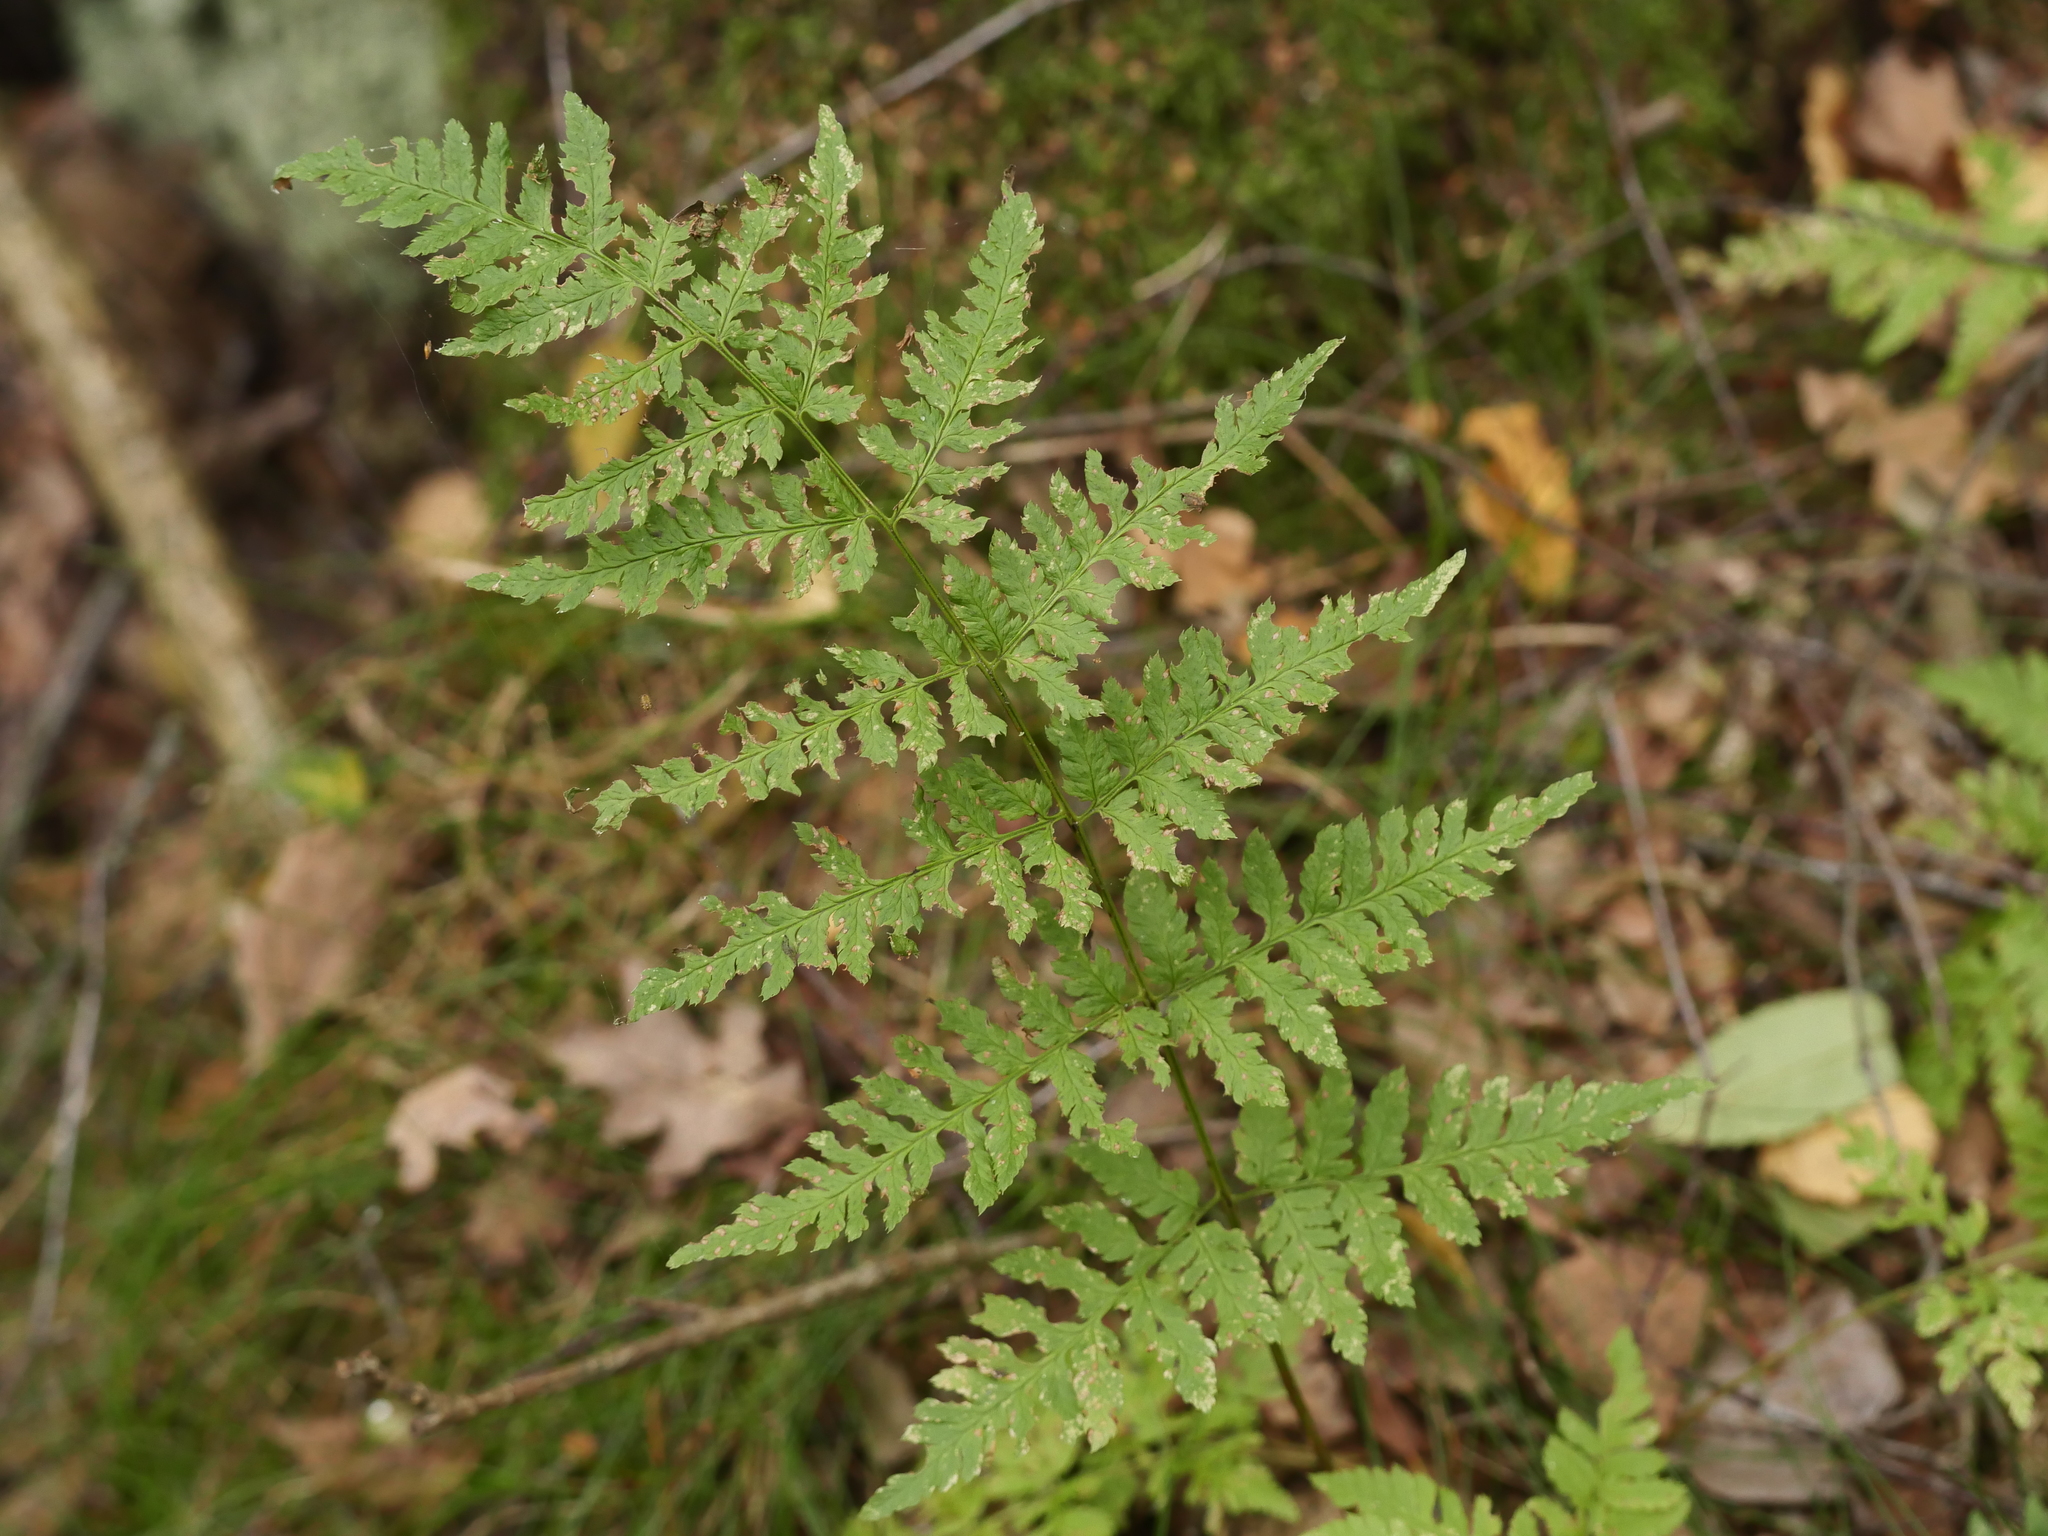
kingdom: Plantae
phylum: Tracheophyta
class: Polypodiopsida
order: Polypodiales
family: Dryopteridaceae
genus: Dryopteris
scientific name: Dryopteris carthusiana
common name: Narrow buckler-fern
